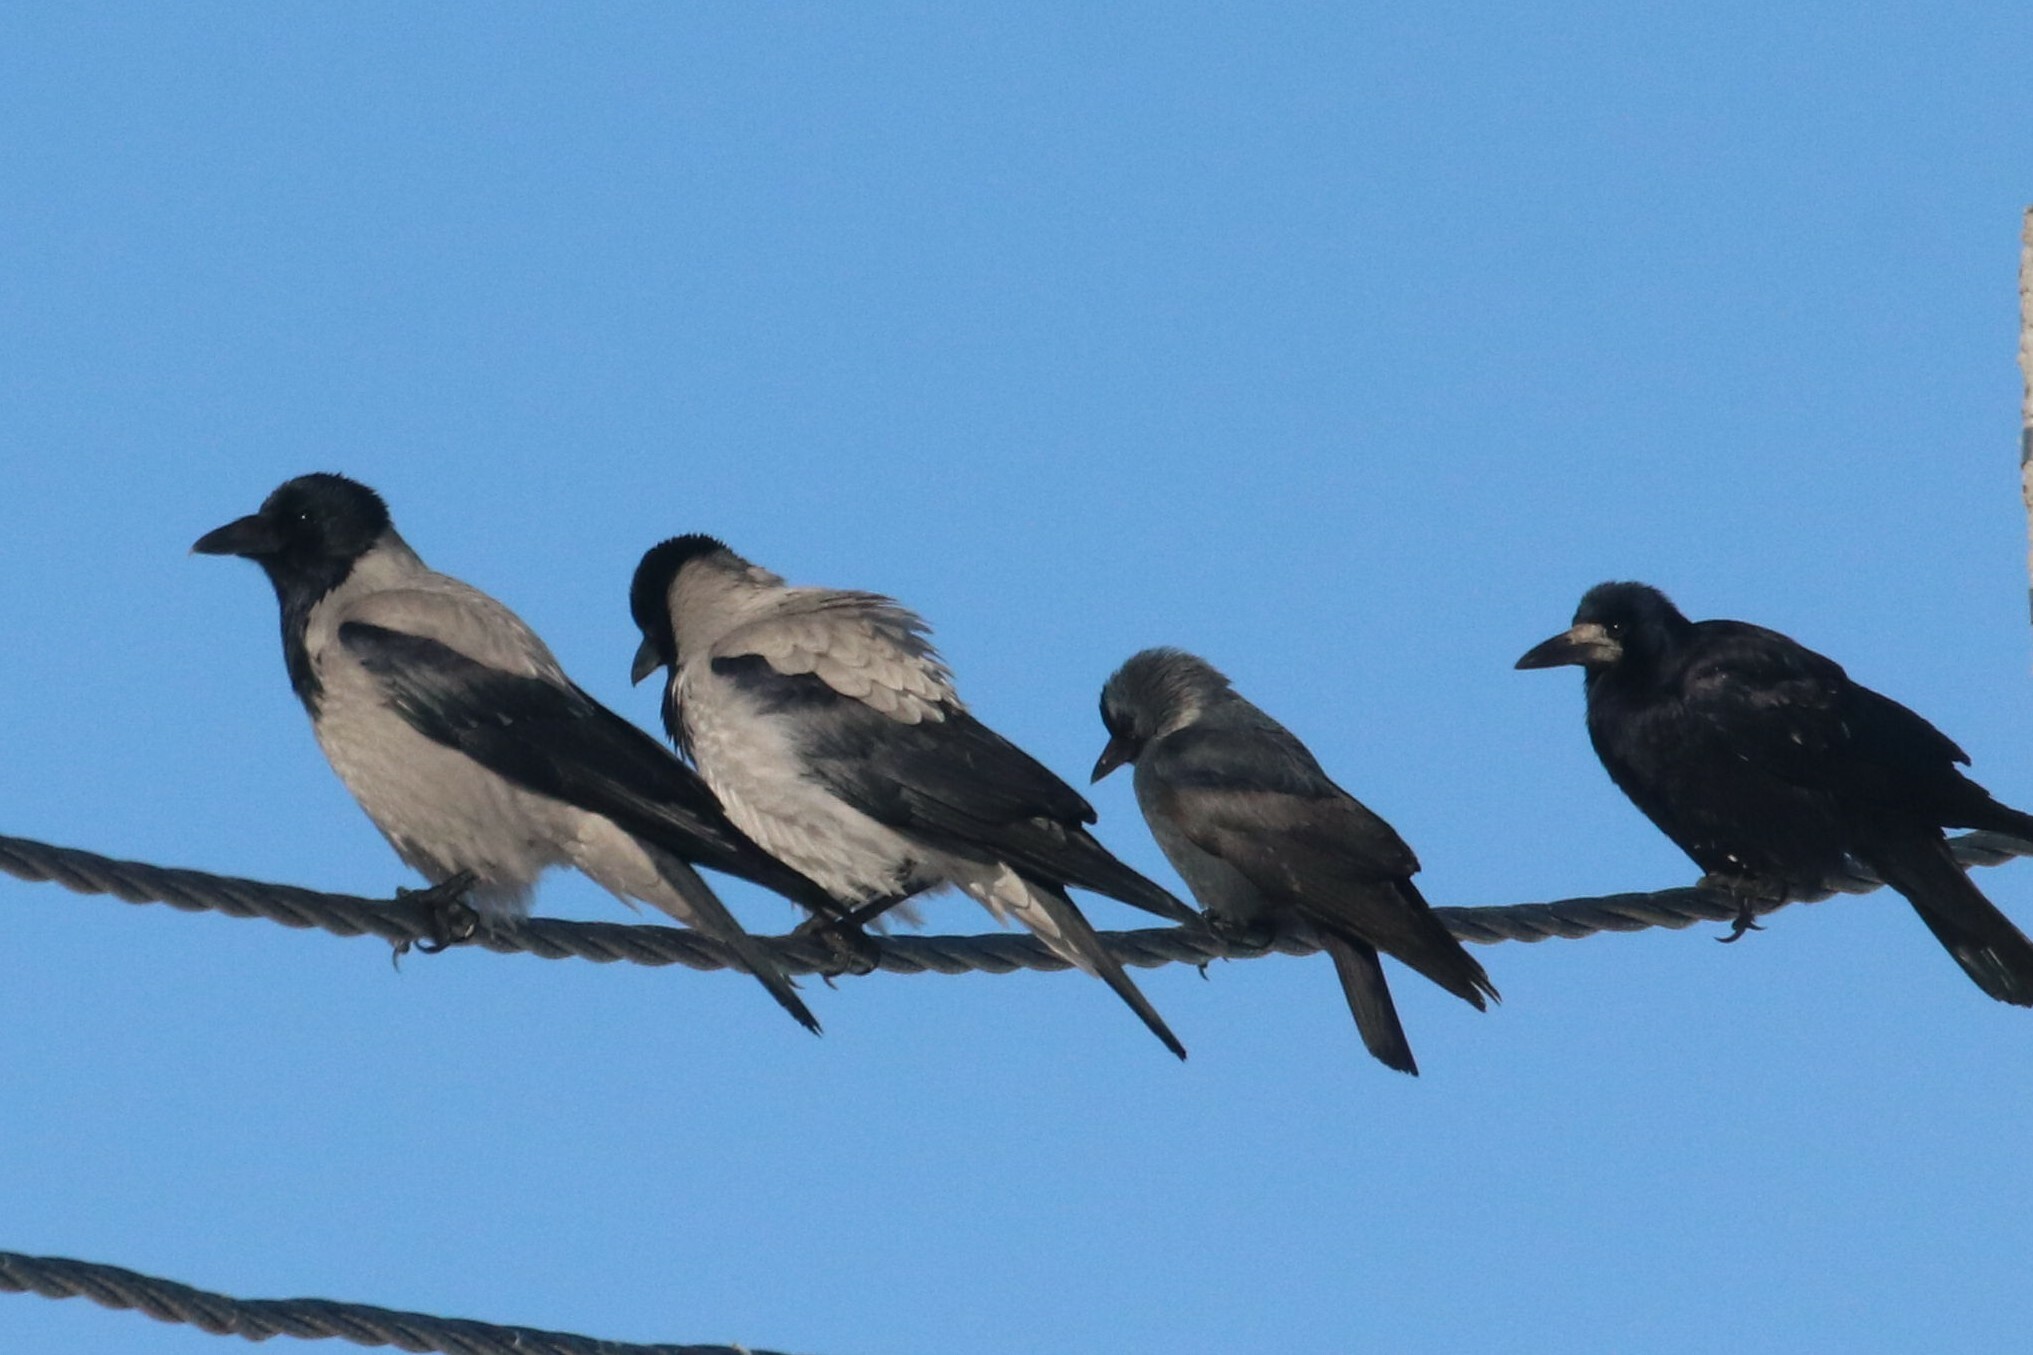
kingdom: Animalia
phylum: Chordata
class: Aves
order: Passeriformes
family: Corvidae
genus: Coloeus
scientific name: Coloeus monedula
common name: Western jackdaw
